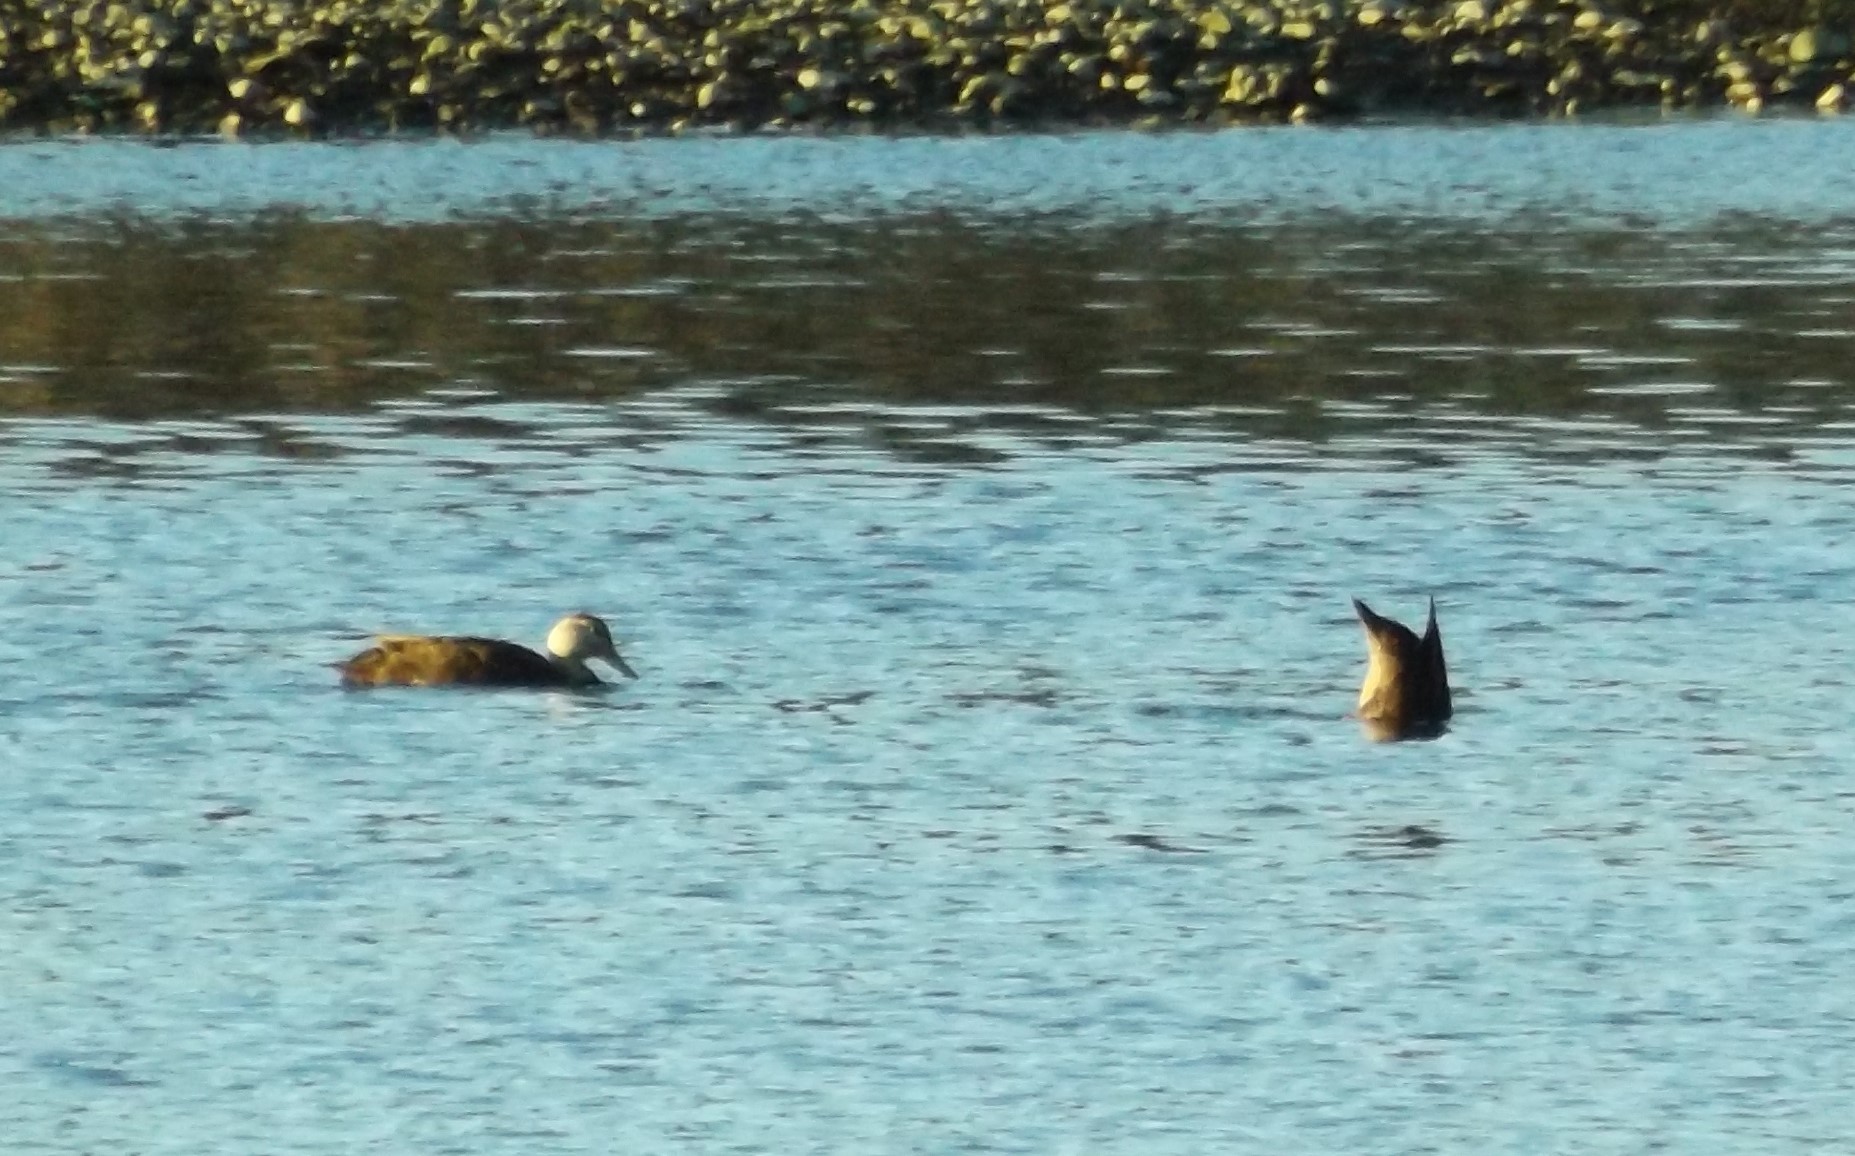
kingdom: Animalia
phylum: Chordata
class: Aves
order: Anseriformes
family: Anatidae
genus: Anas
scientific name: Anas rubripes
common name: American black duck
